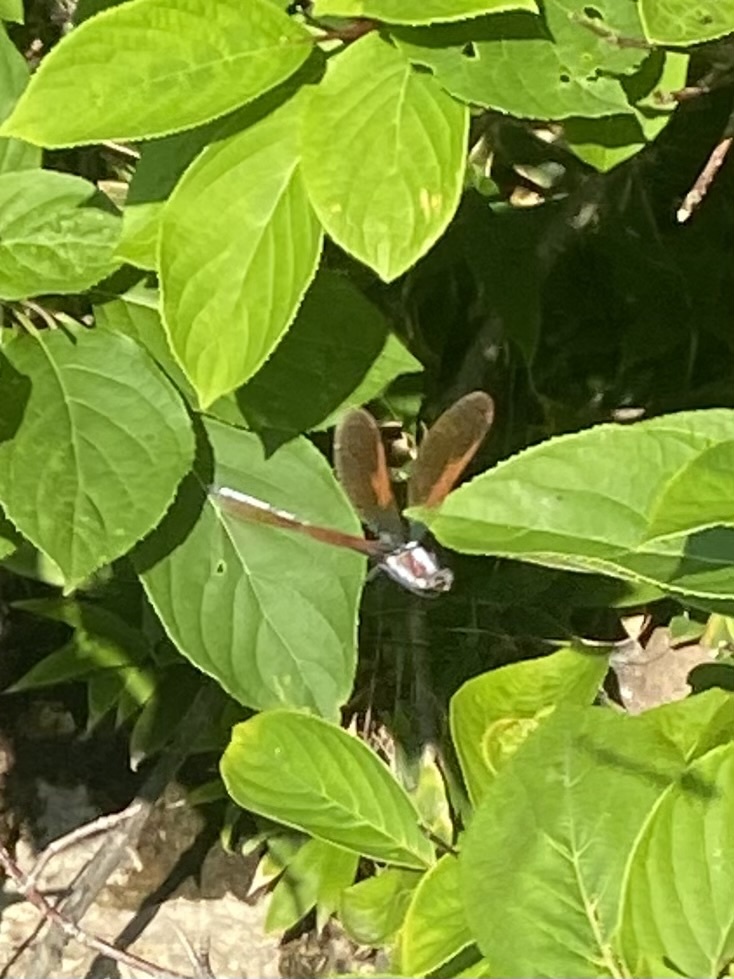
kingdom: Animalia
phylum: Arthropoda
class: Insecta
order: Odonata
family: Calopterygidae
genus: Mnais
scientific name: Mnais costalis
